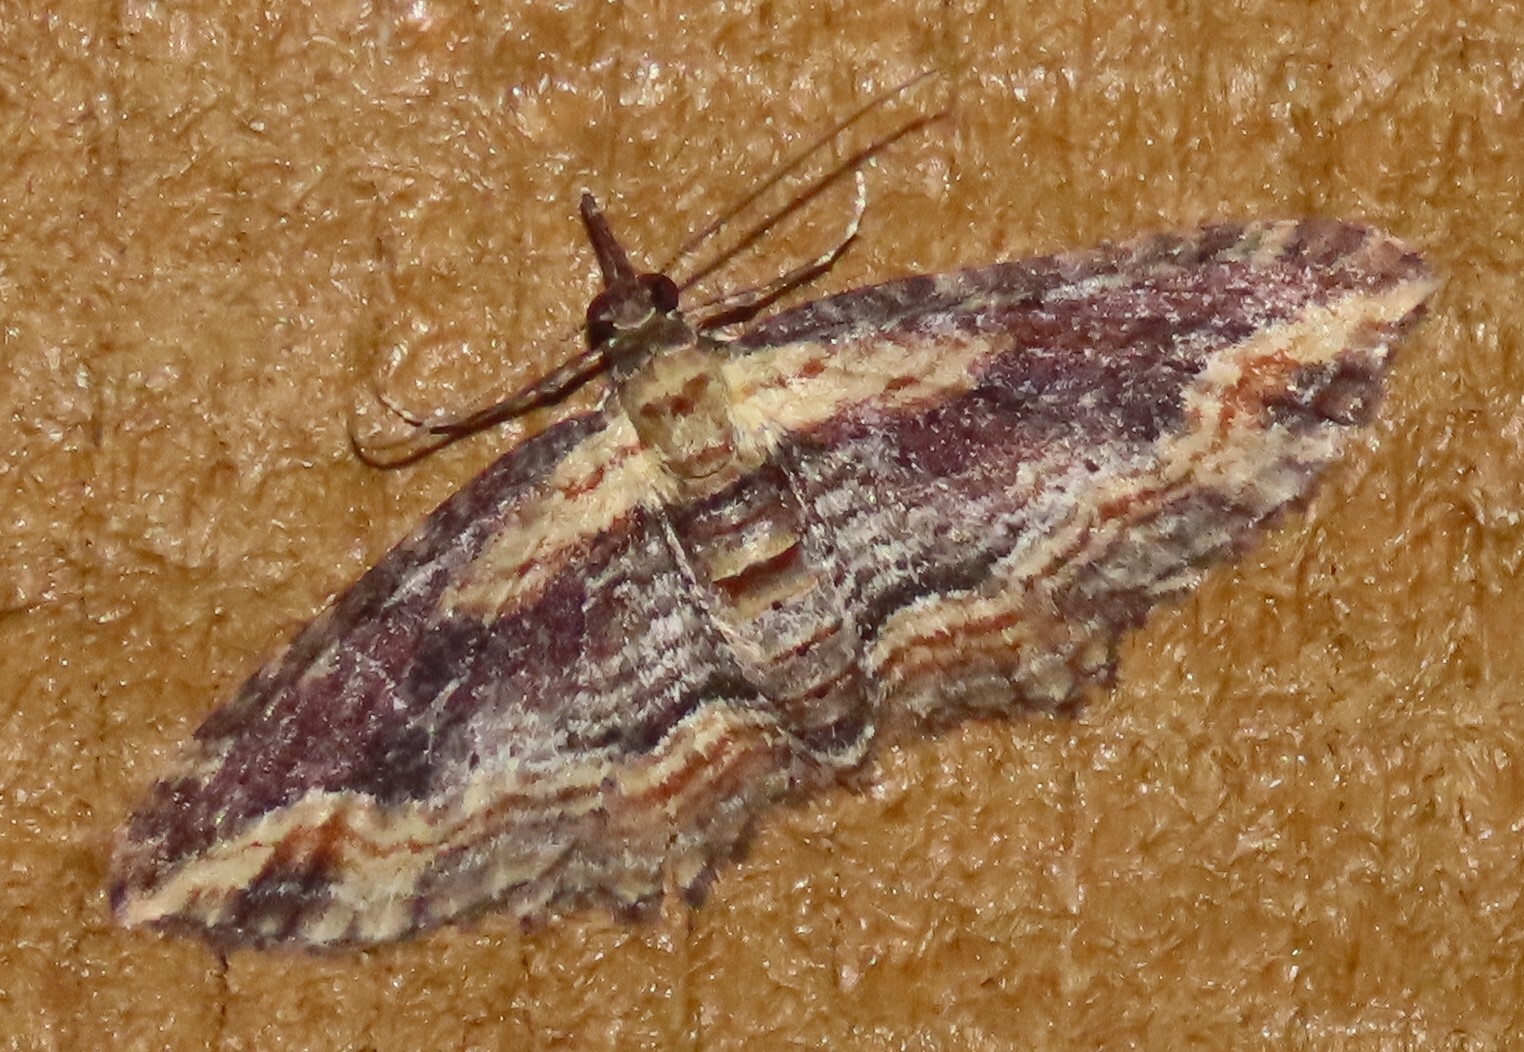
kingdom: Animalia
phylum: Arthropoda
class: Insecta
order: Lepidoptera
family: Geometridae
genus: Chloroclystis
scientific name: Chloroclystis filata
